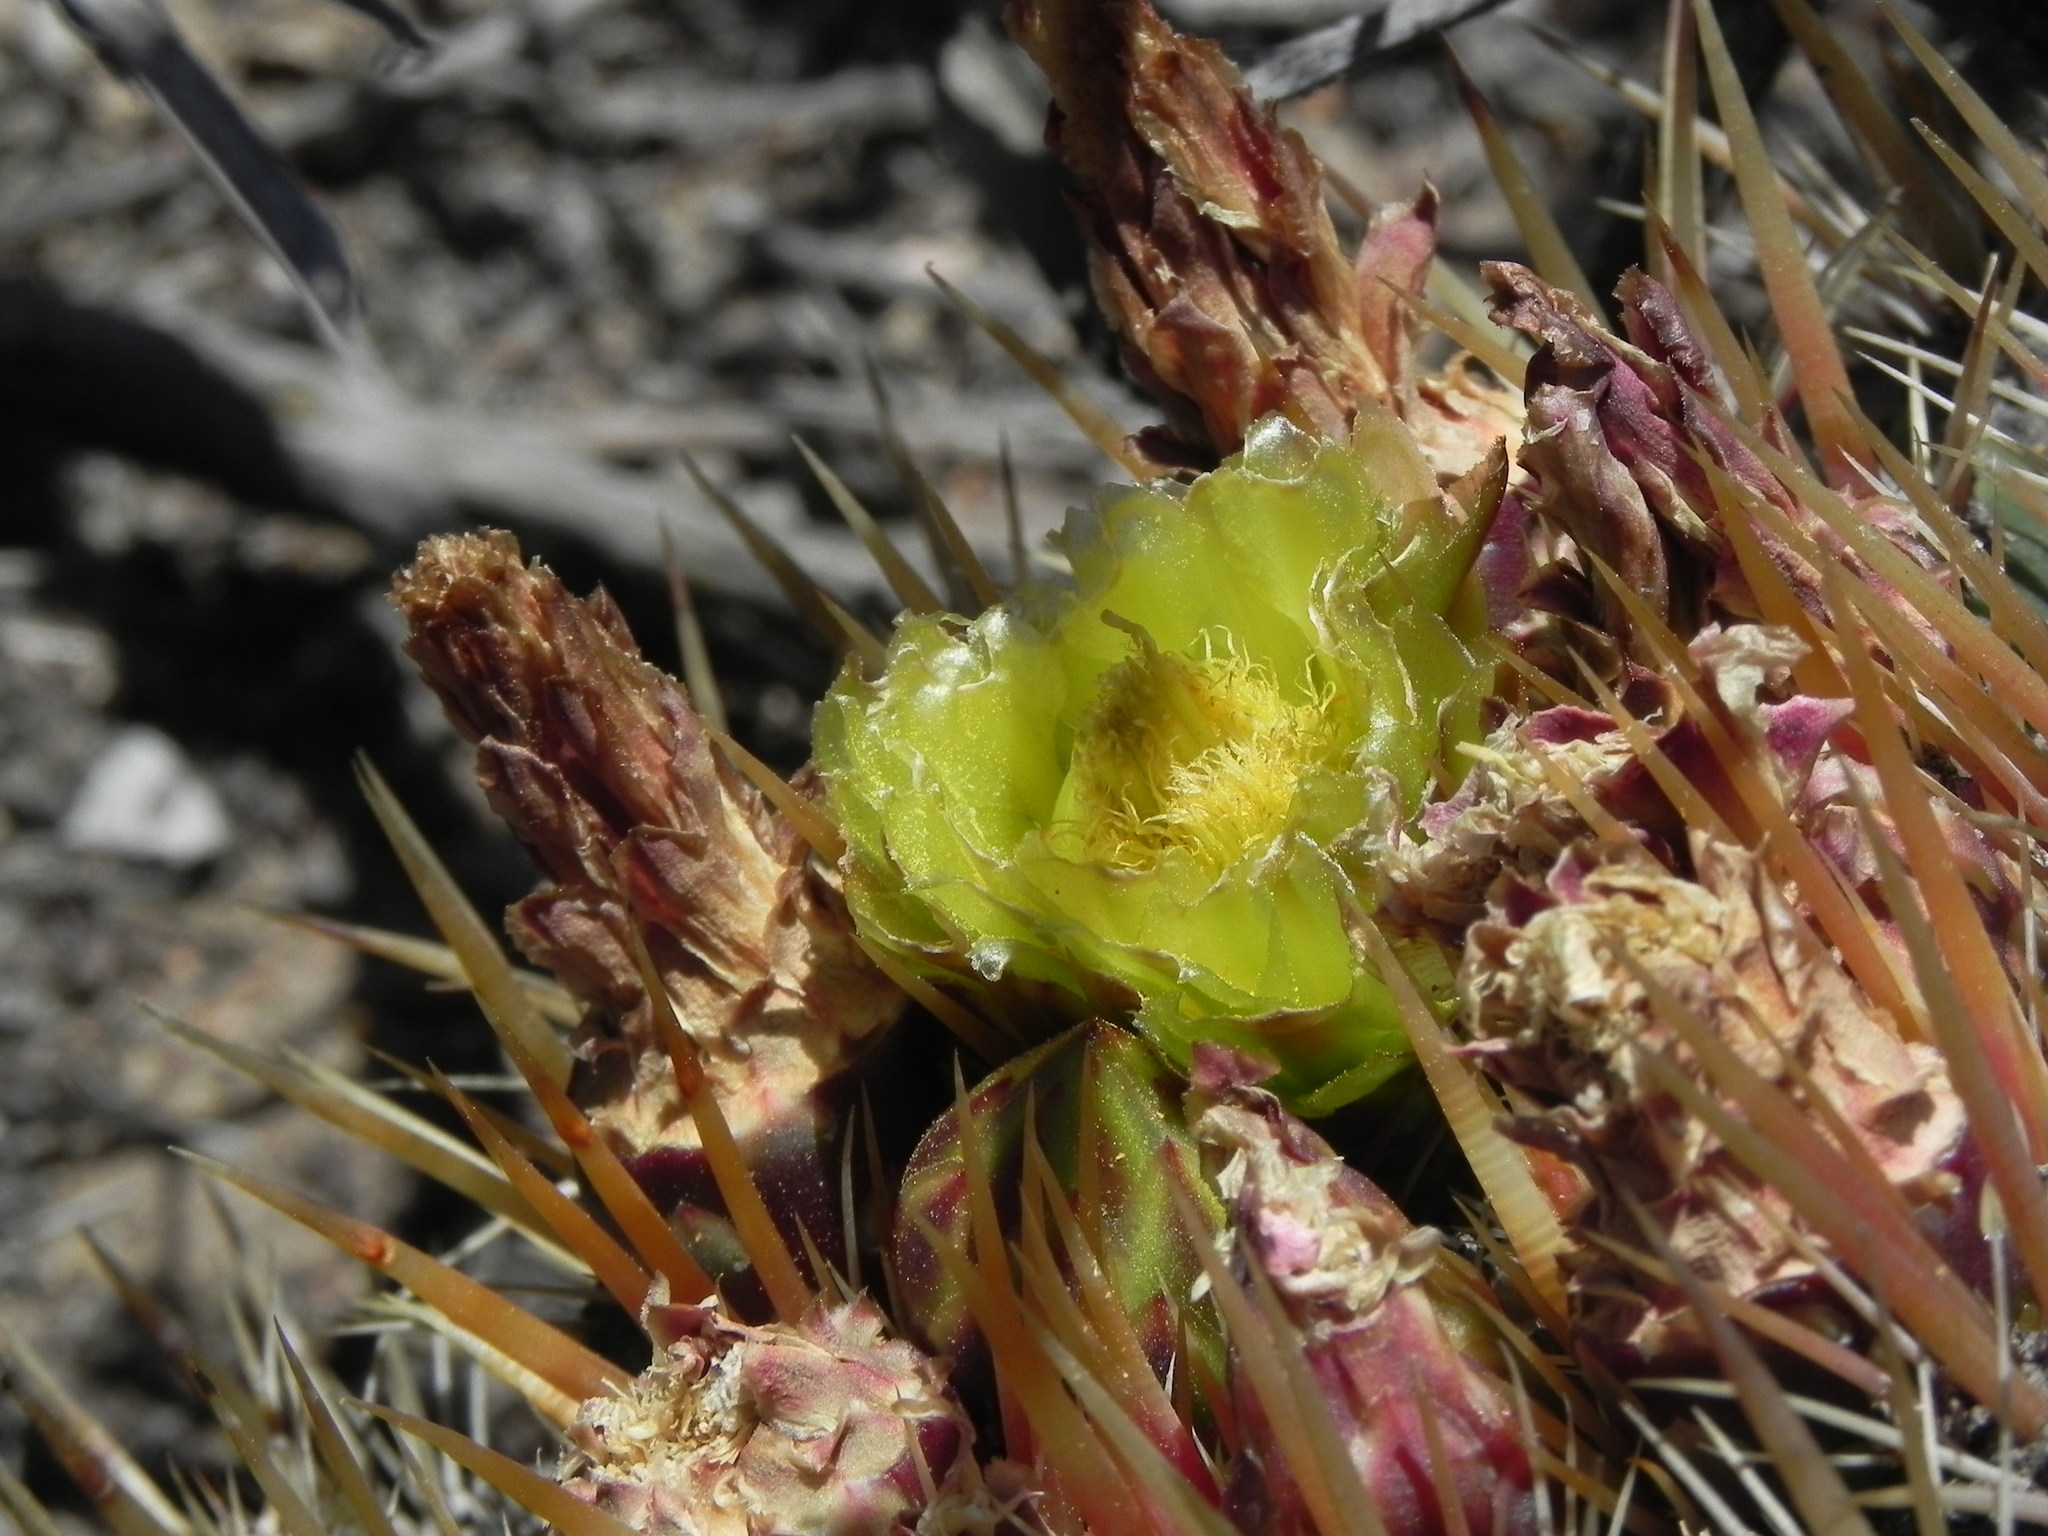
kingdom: Plantae
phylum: Tracheophyta
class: Magnoliopsida
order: Caryophyllales
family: Cactaceae
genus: Ferocactus
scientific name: Ferocactus viridescens
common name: San diego barrel cactus
